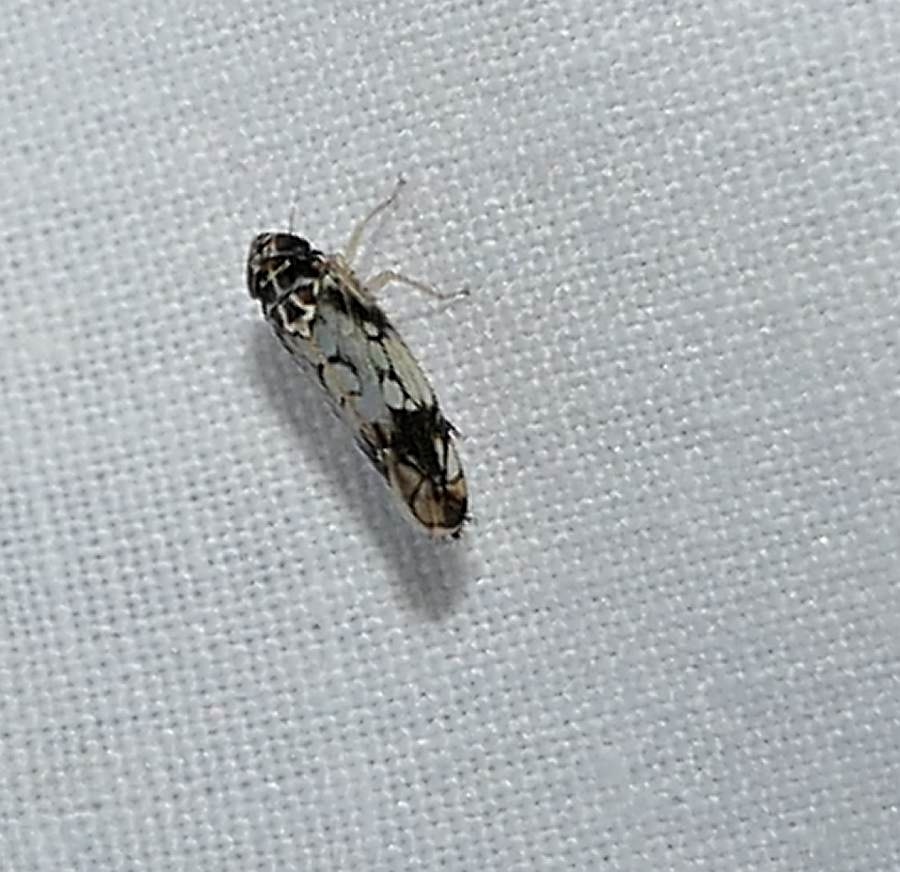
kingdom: Animalia
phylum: Arthropoda
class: Insecta
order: Hemiptera
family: Cicadellidae
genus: Scaphoideus
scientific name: Scaphoideus obtusus
